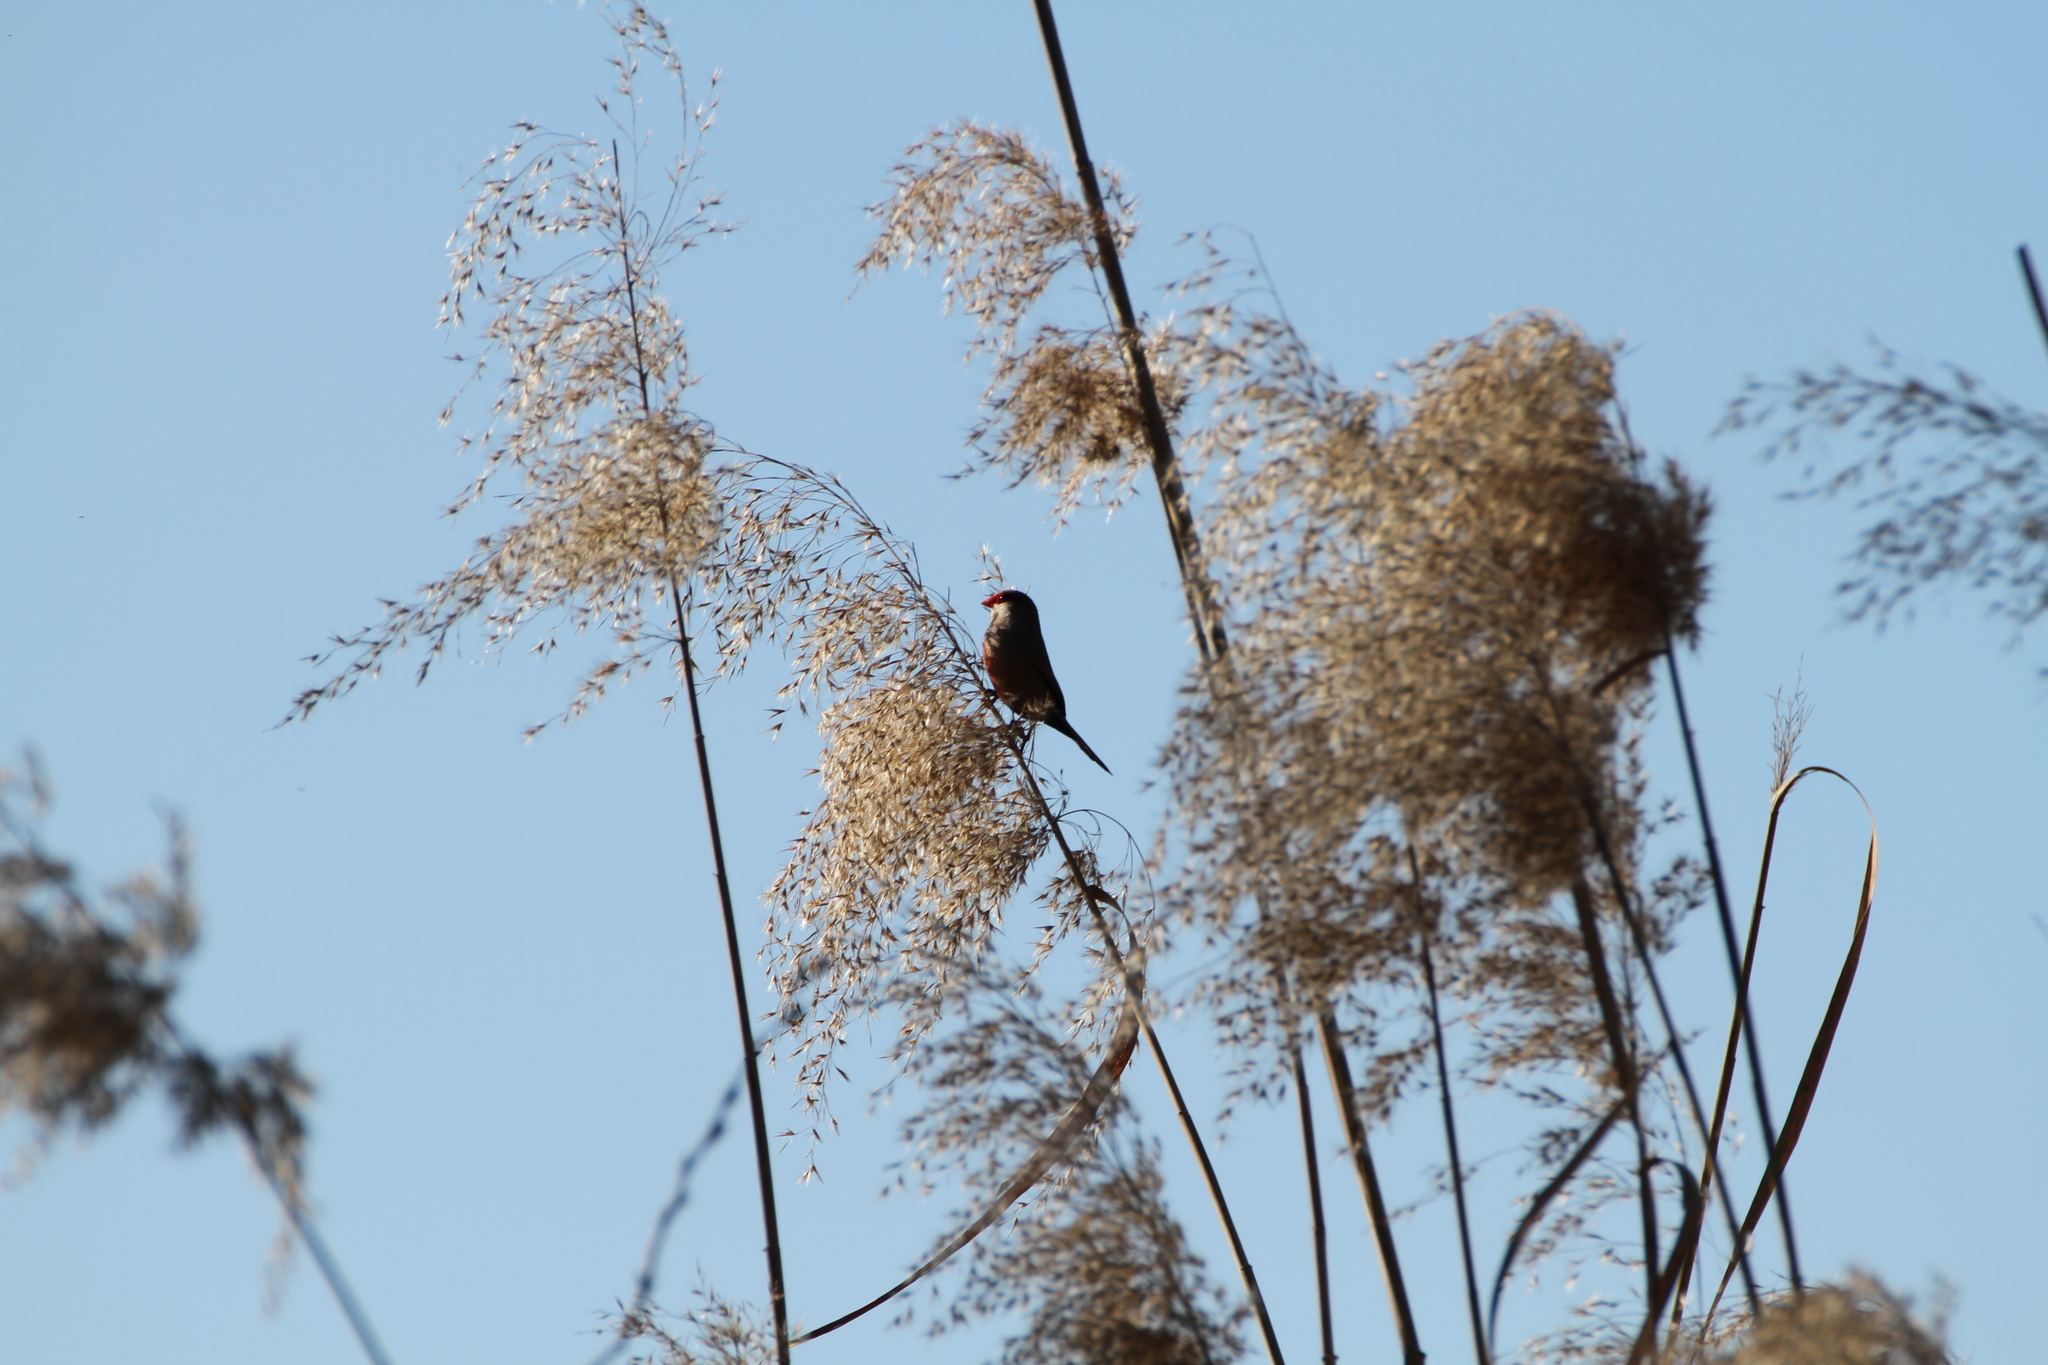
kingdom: Animalia
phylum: Chordata
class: Aves
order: Passeriformes
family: Estrildidae
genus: Estrilda
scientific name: Estrilda astrild
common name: Common waxbill
